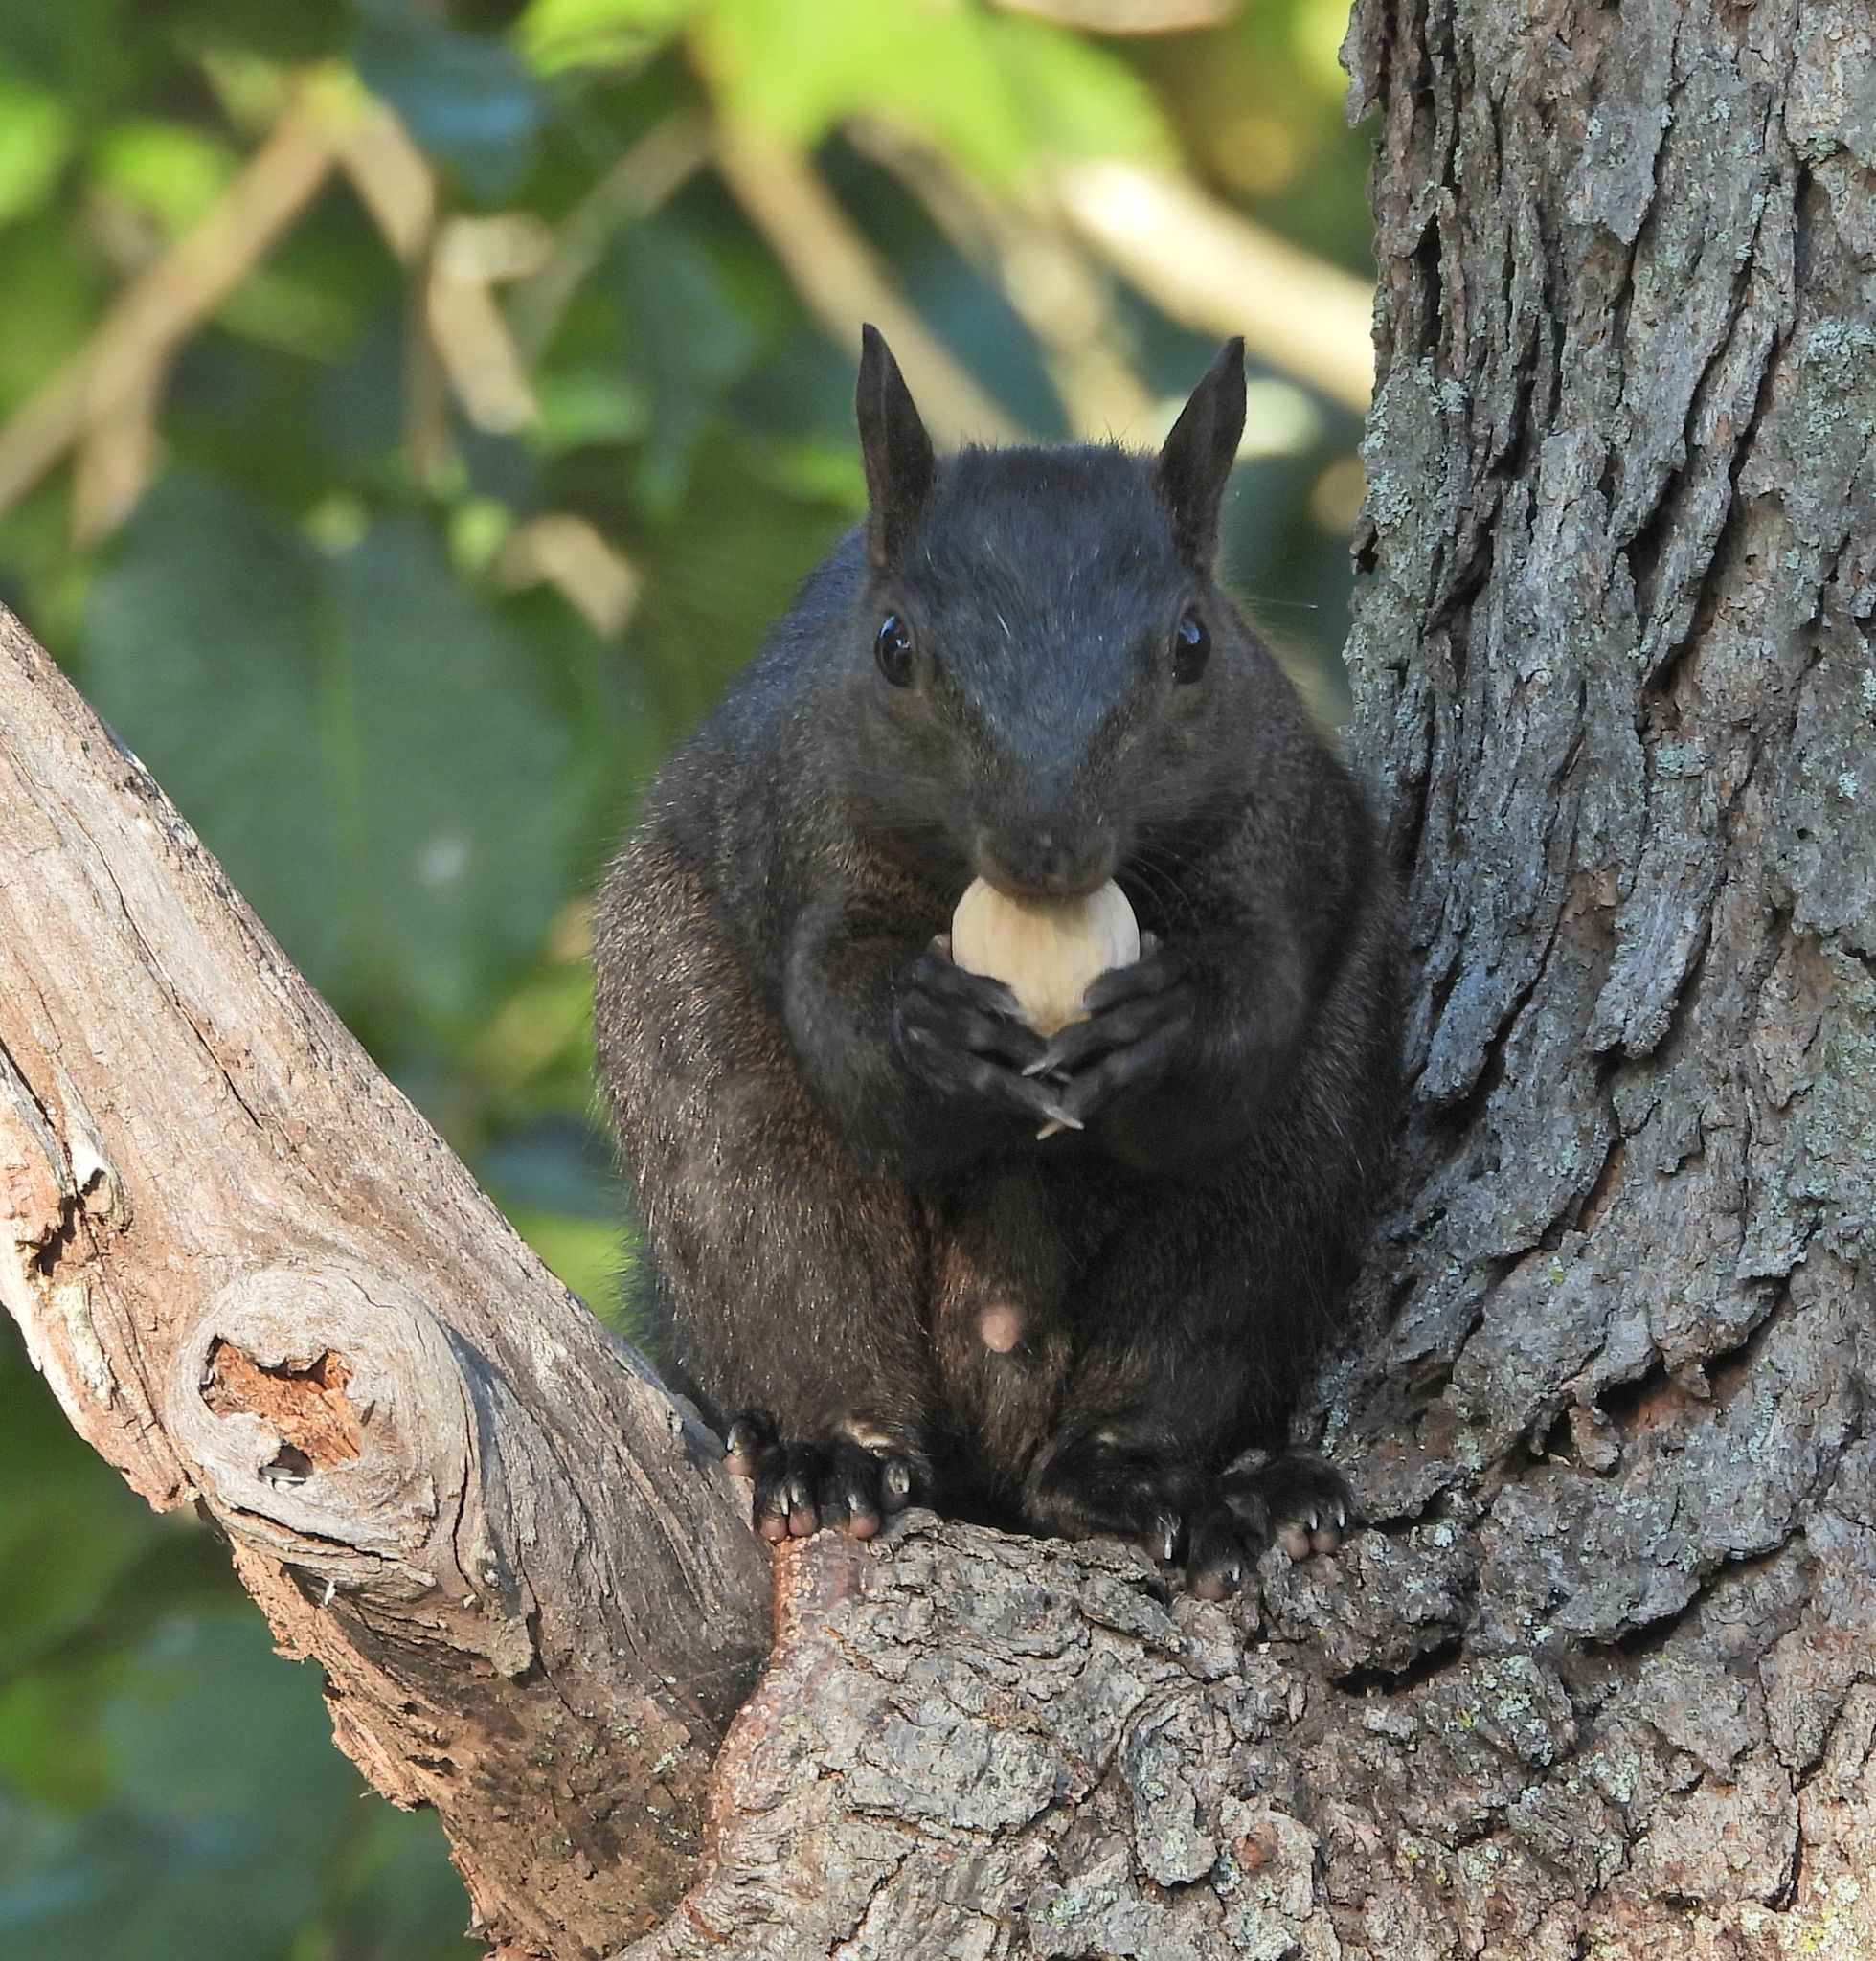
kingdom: Animalia
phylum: Chordata
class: Mammalia
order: Rodentia
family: Sciuridae
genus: Sciurus
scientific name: Sciurus carolinensis
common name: Eastern gray squirrel
